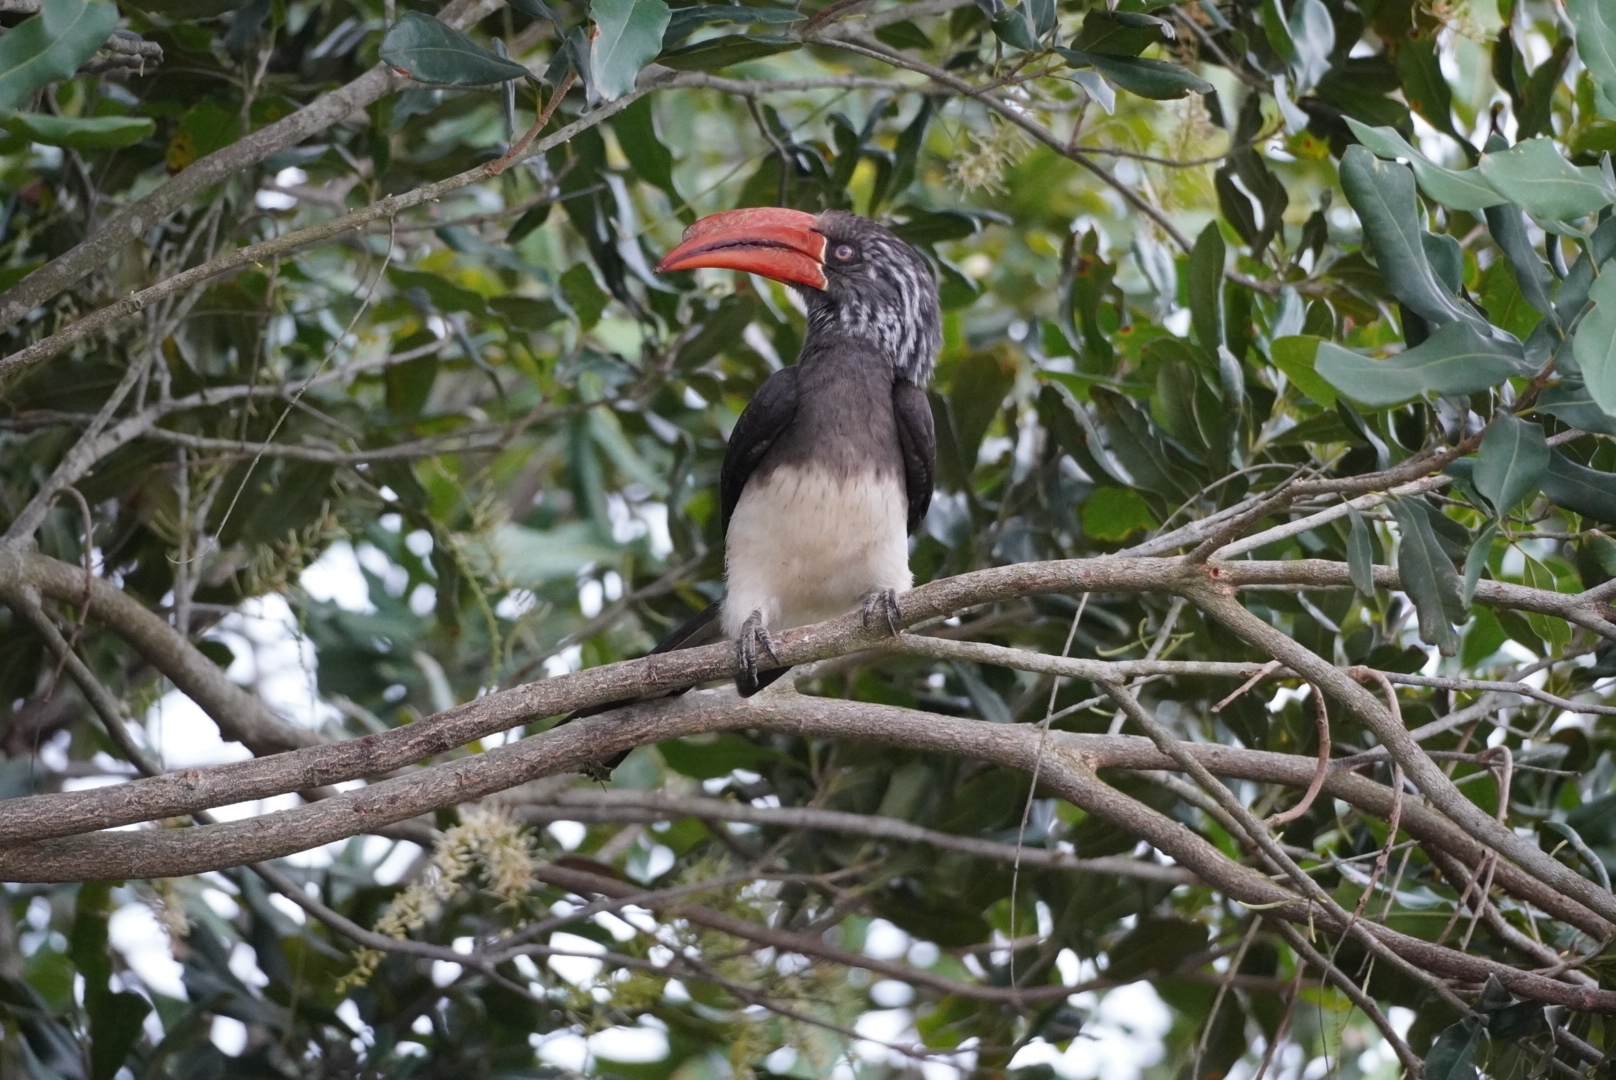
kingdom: Animalia
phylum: Chordata
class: Aves
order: Bucerotiformes
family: Bucerotidae
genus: Lophoceros
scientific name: Lophoceros alboterminatus
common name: Crowned hornbill
